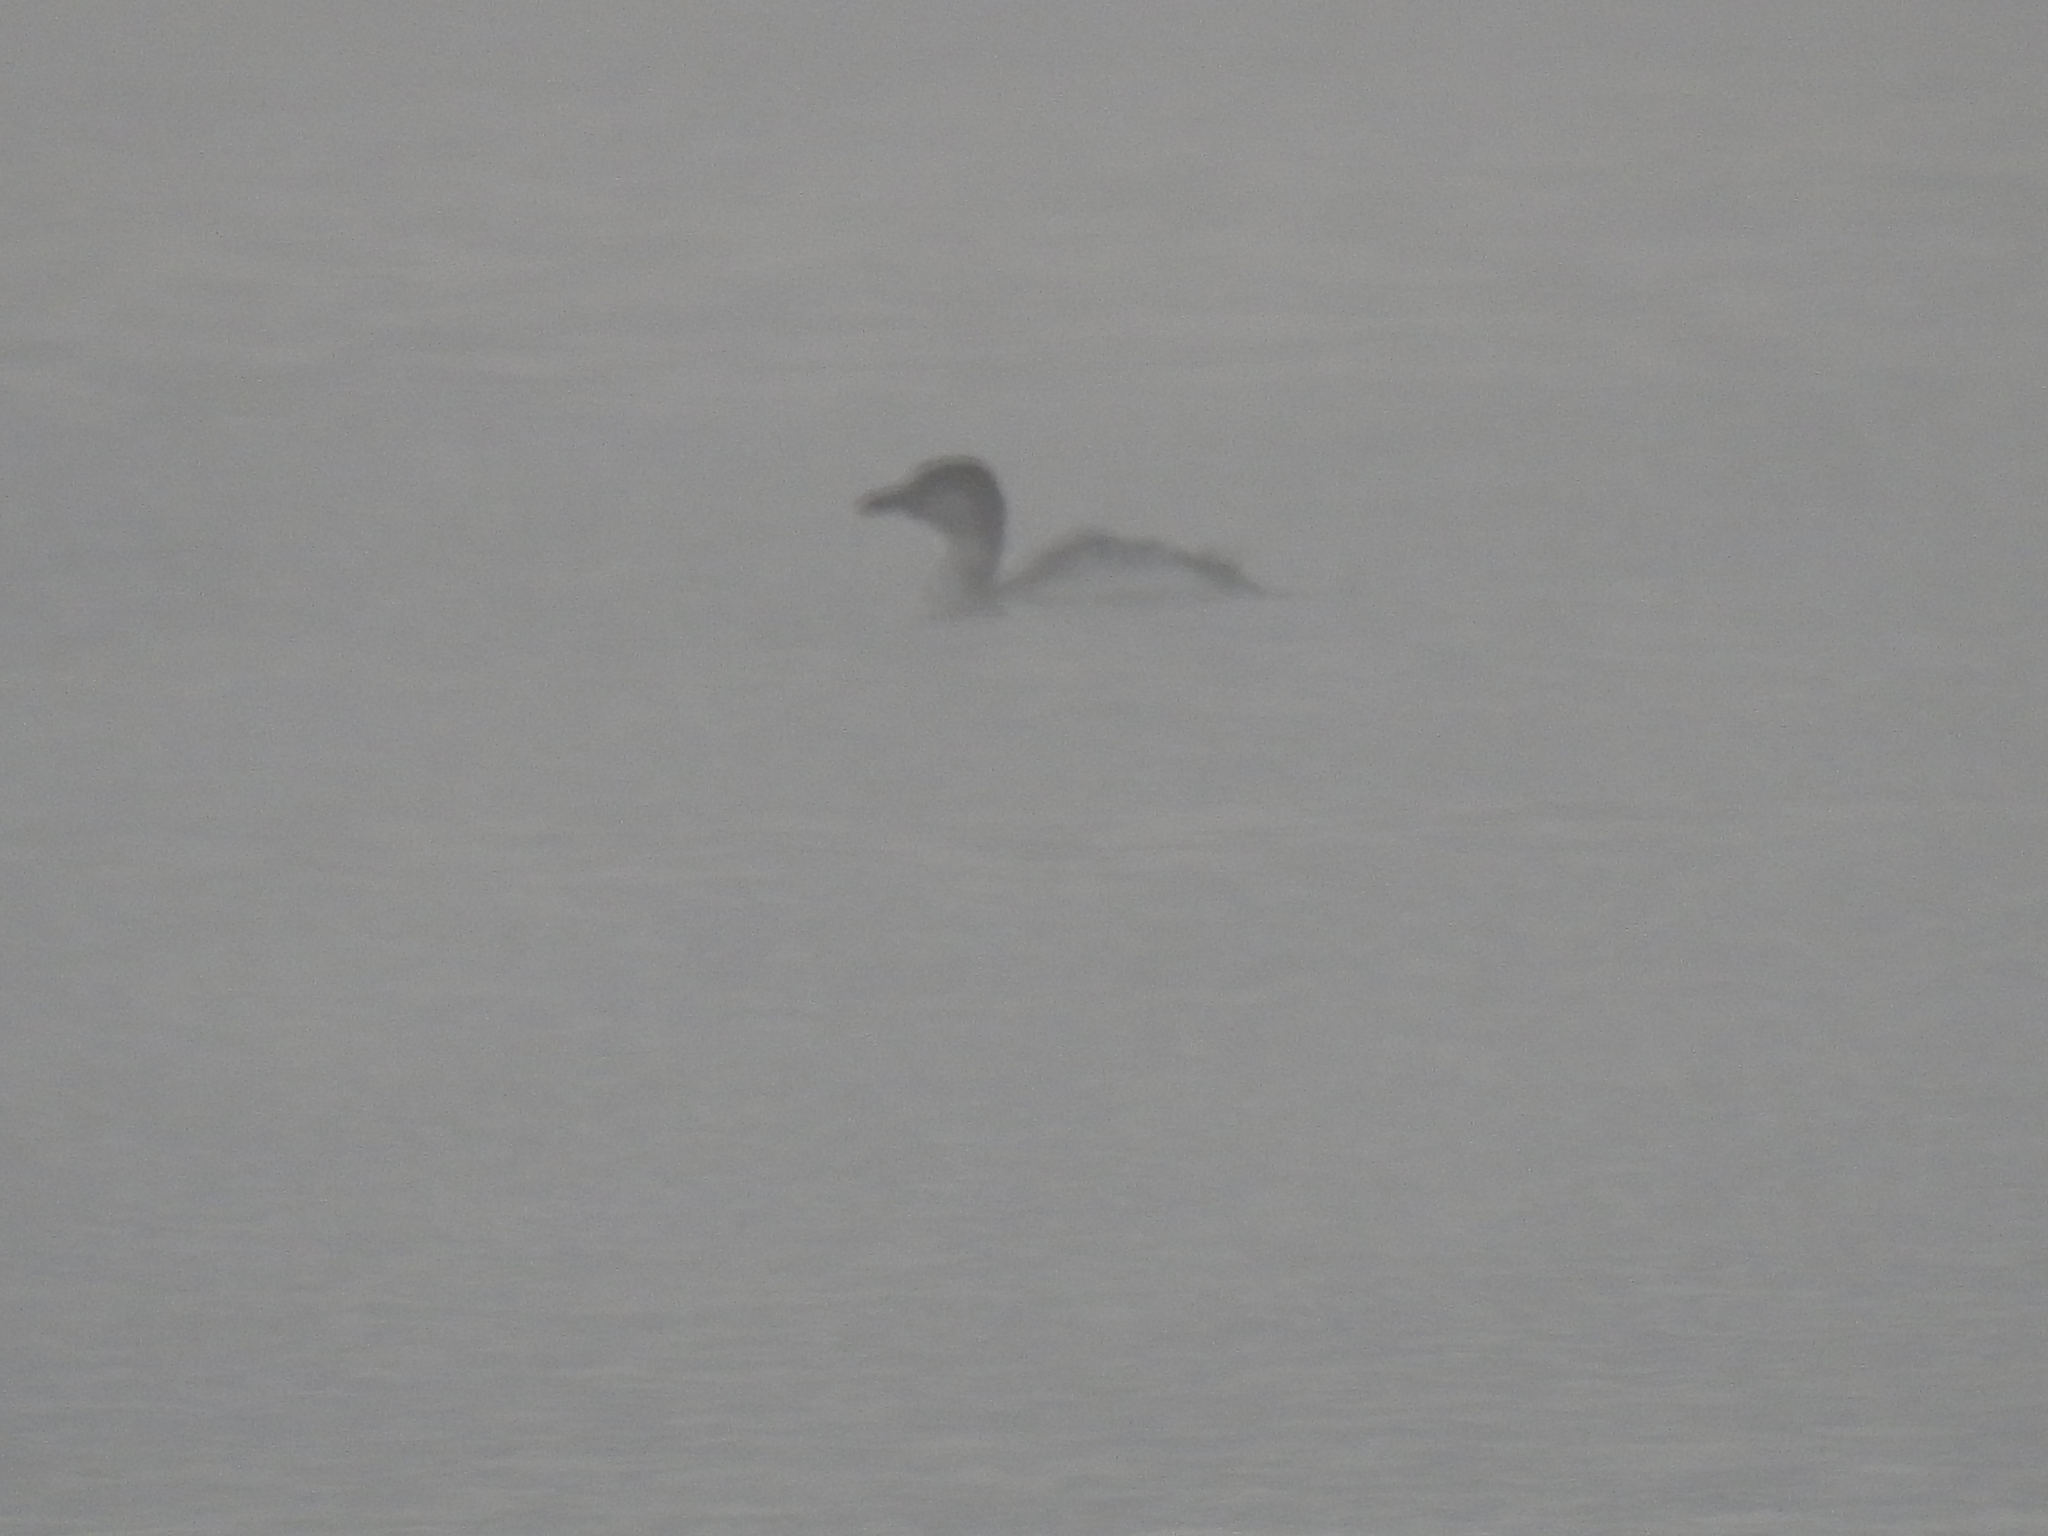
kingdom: Animalia
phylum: Chordata
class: Aves
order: Gaviiformes
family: Gaviidae
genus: Gavia
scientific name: Gavia immer
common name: Common loon
